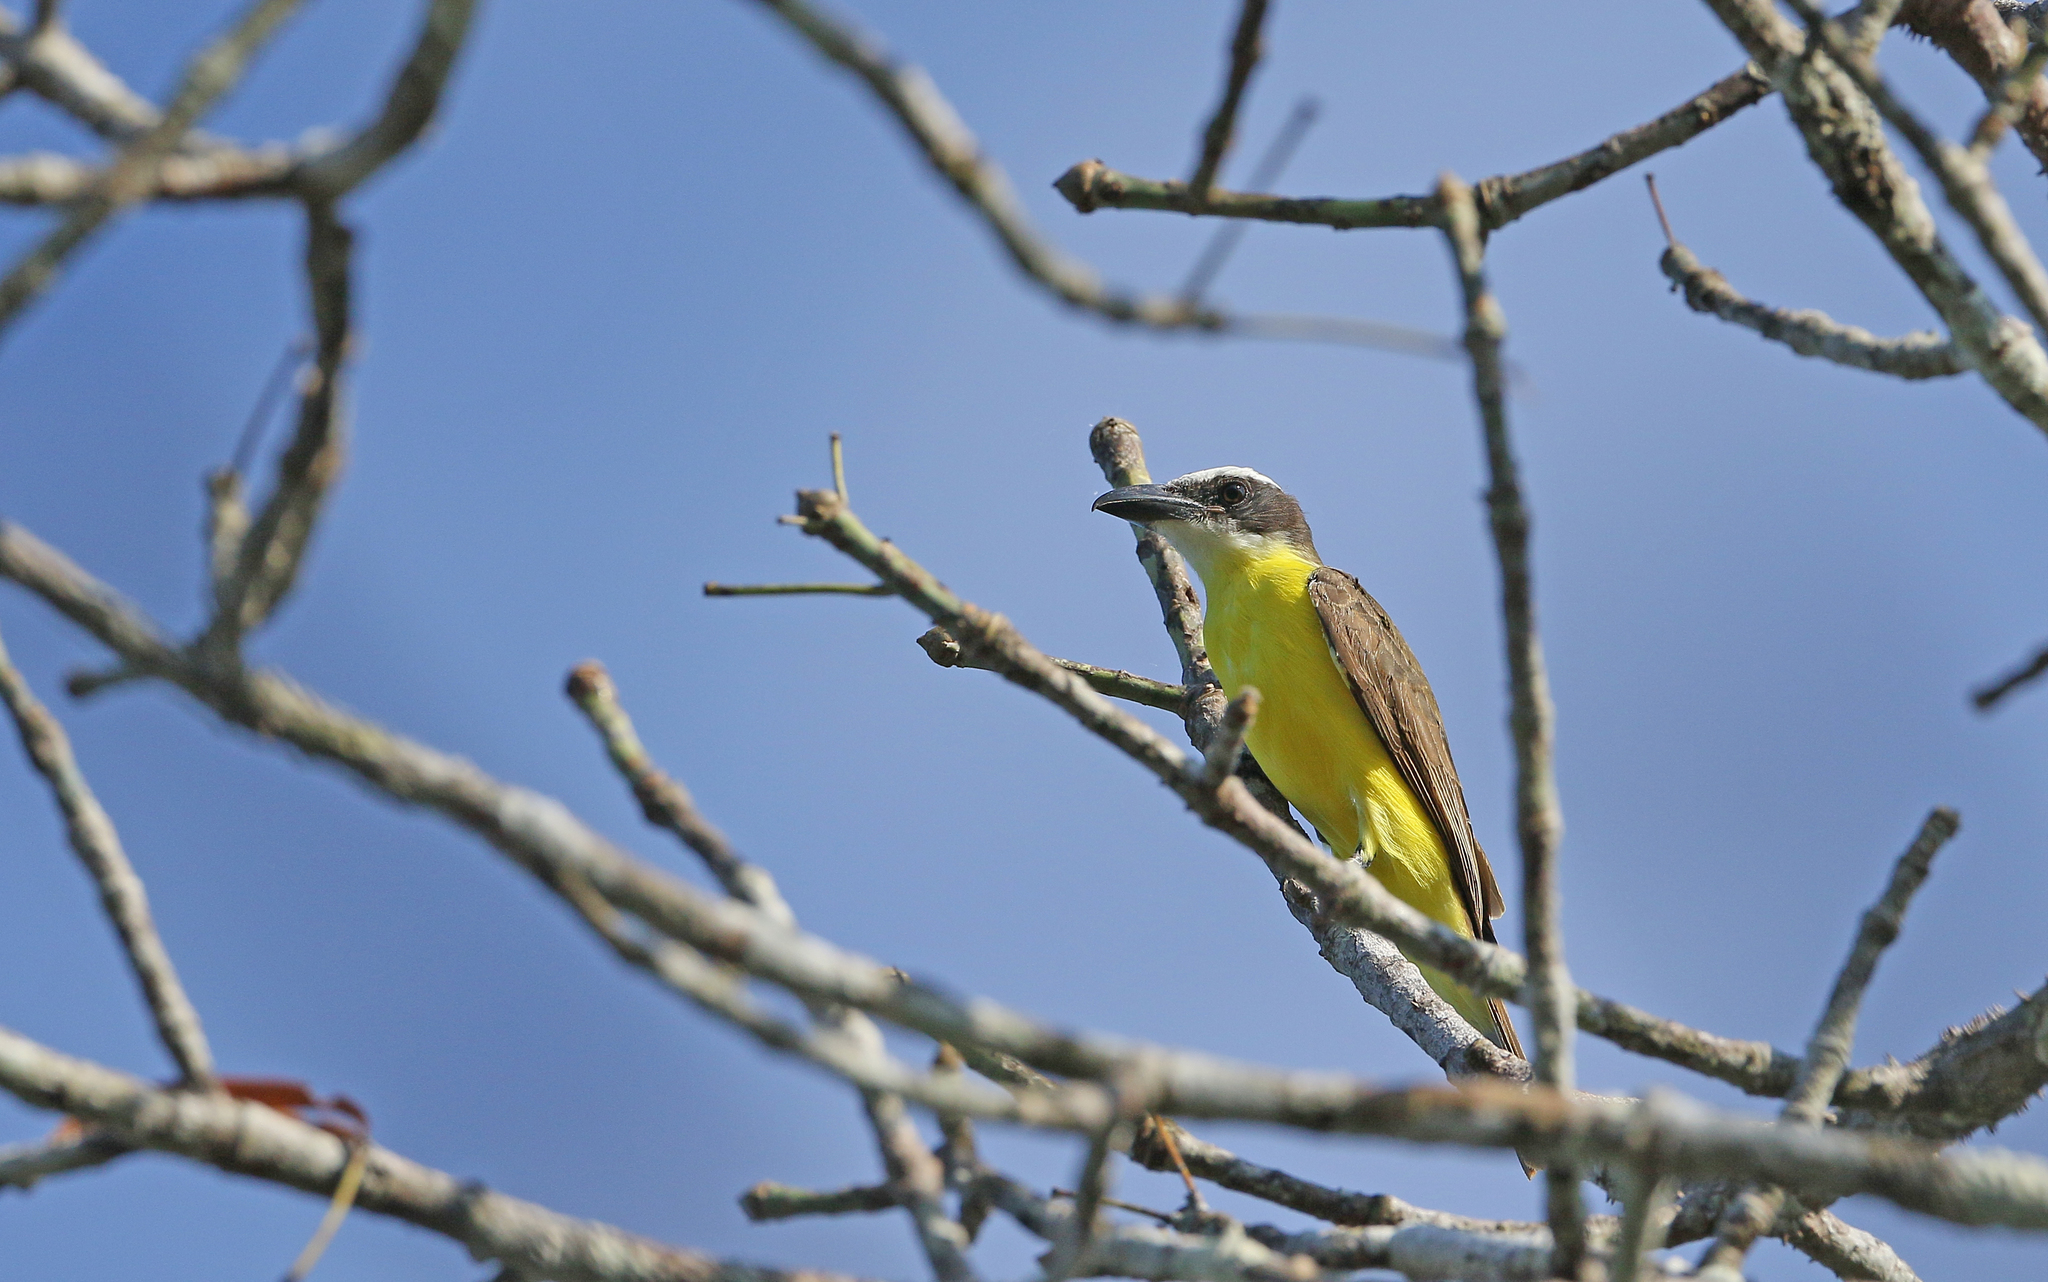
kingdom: Animalia
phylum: Chordata
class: Aves
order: Passeriformes
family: Tyrannidae
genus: Megarynchus
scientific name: Megarynchus pitangua
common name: Boat-billed flycatcher
